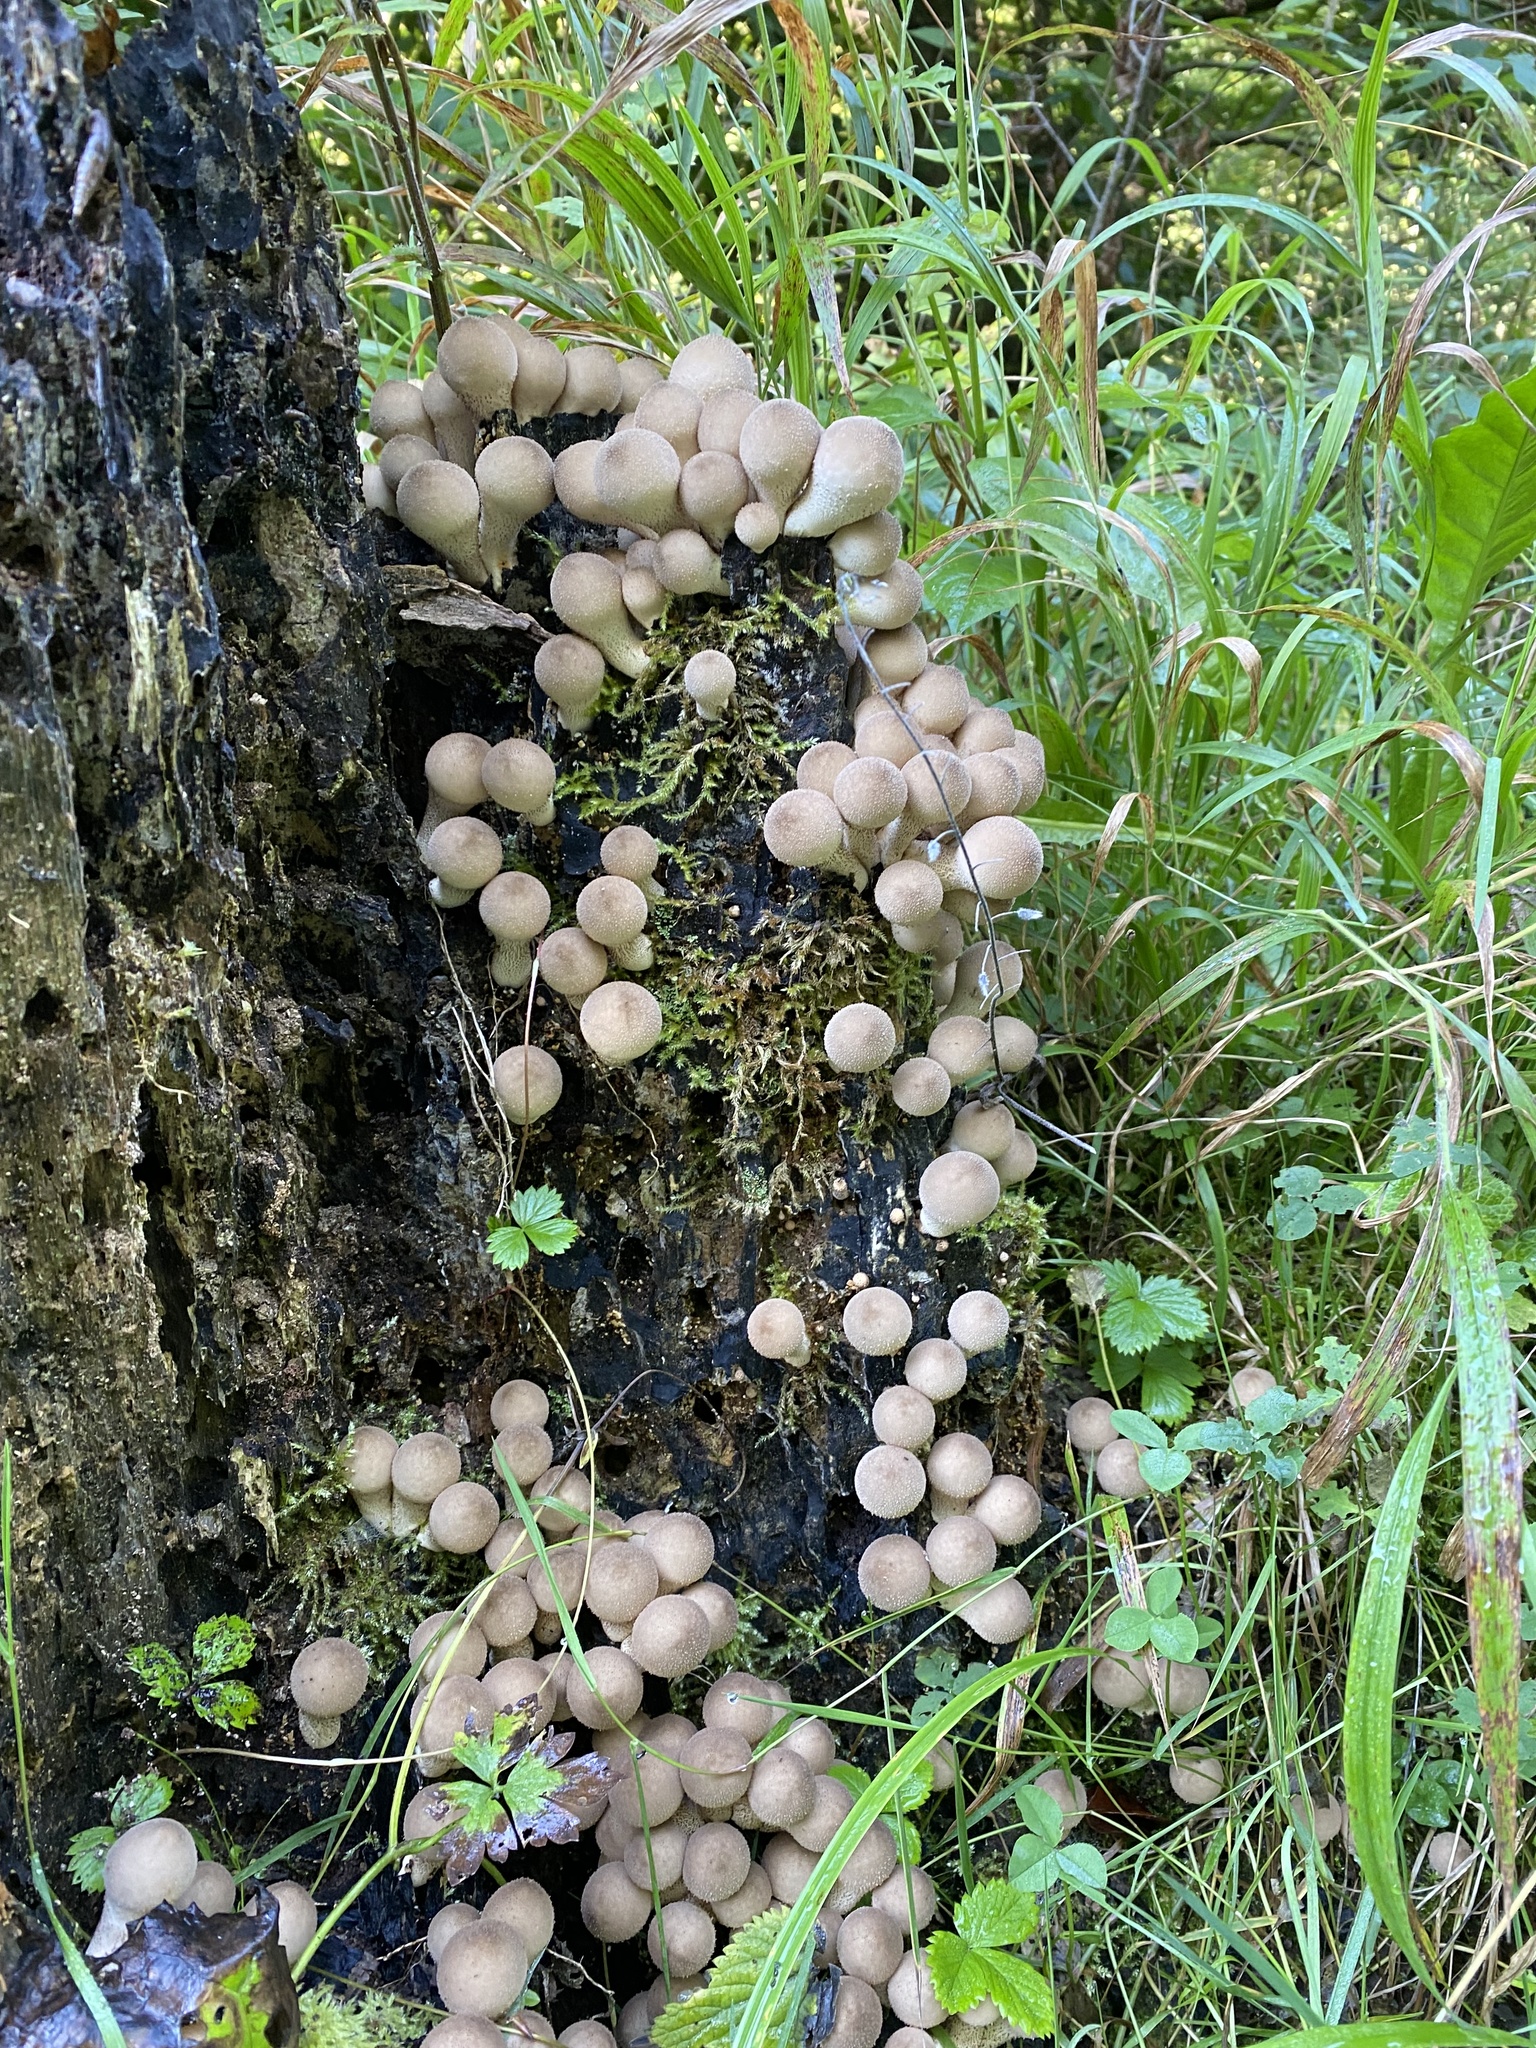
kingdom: Fungi
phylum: Basidiomycota
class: Agaricomycetes
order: Agaricales
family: Lycoperdaceae
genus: Apioperdon
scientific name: Apioperdon pyriforme
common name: Pear-shaped puffball
